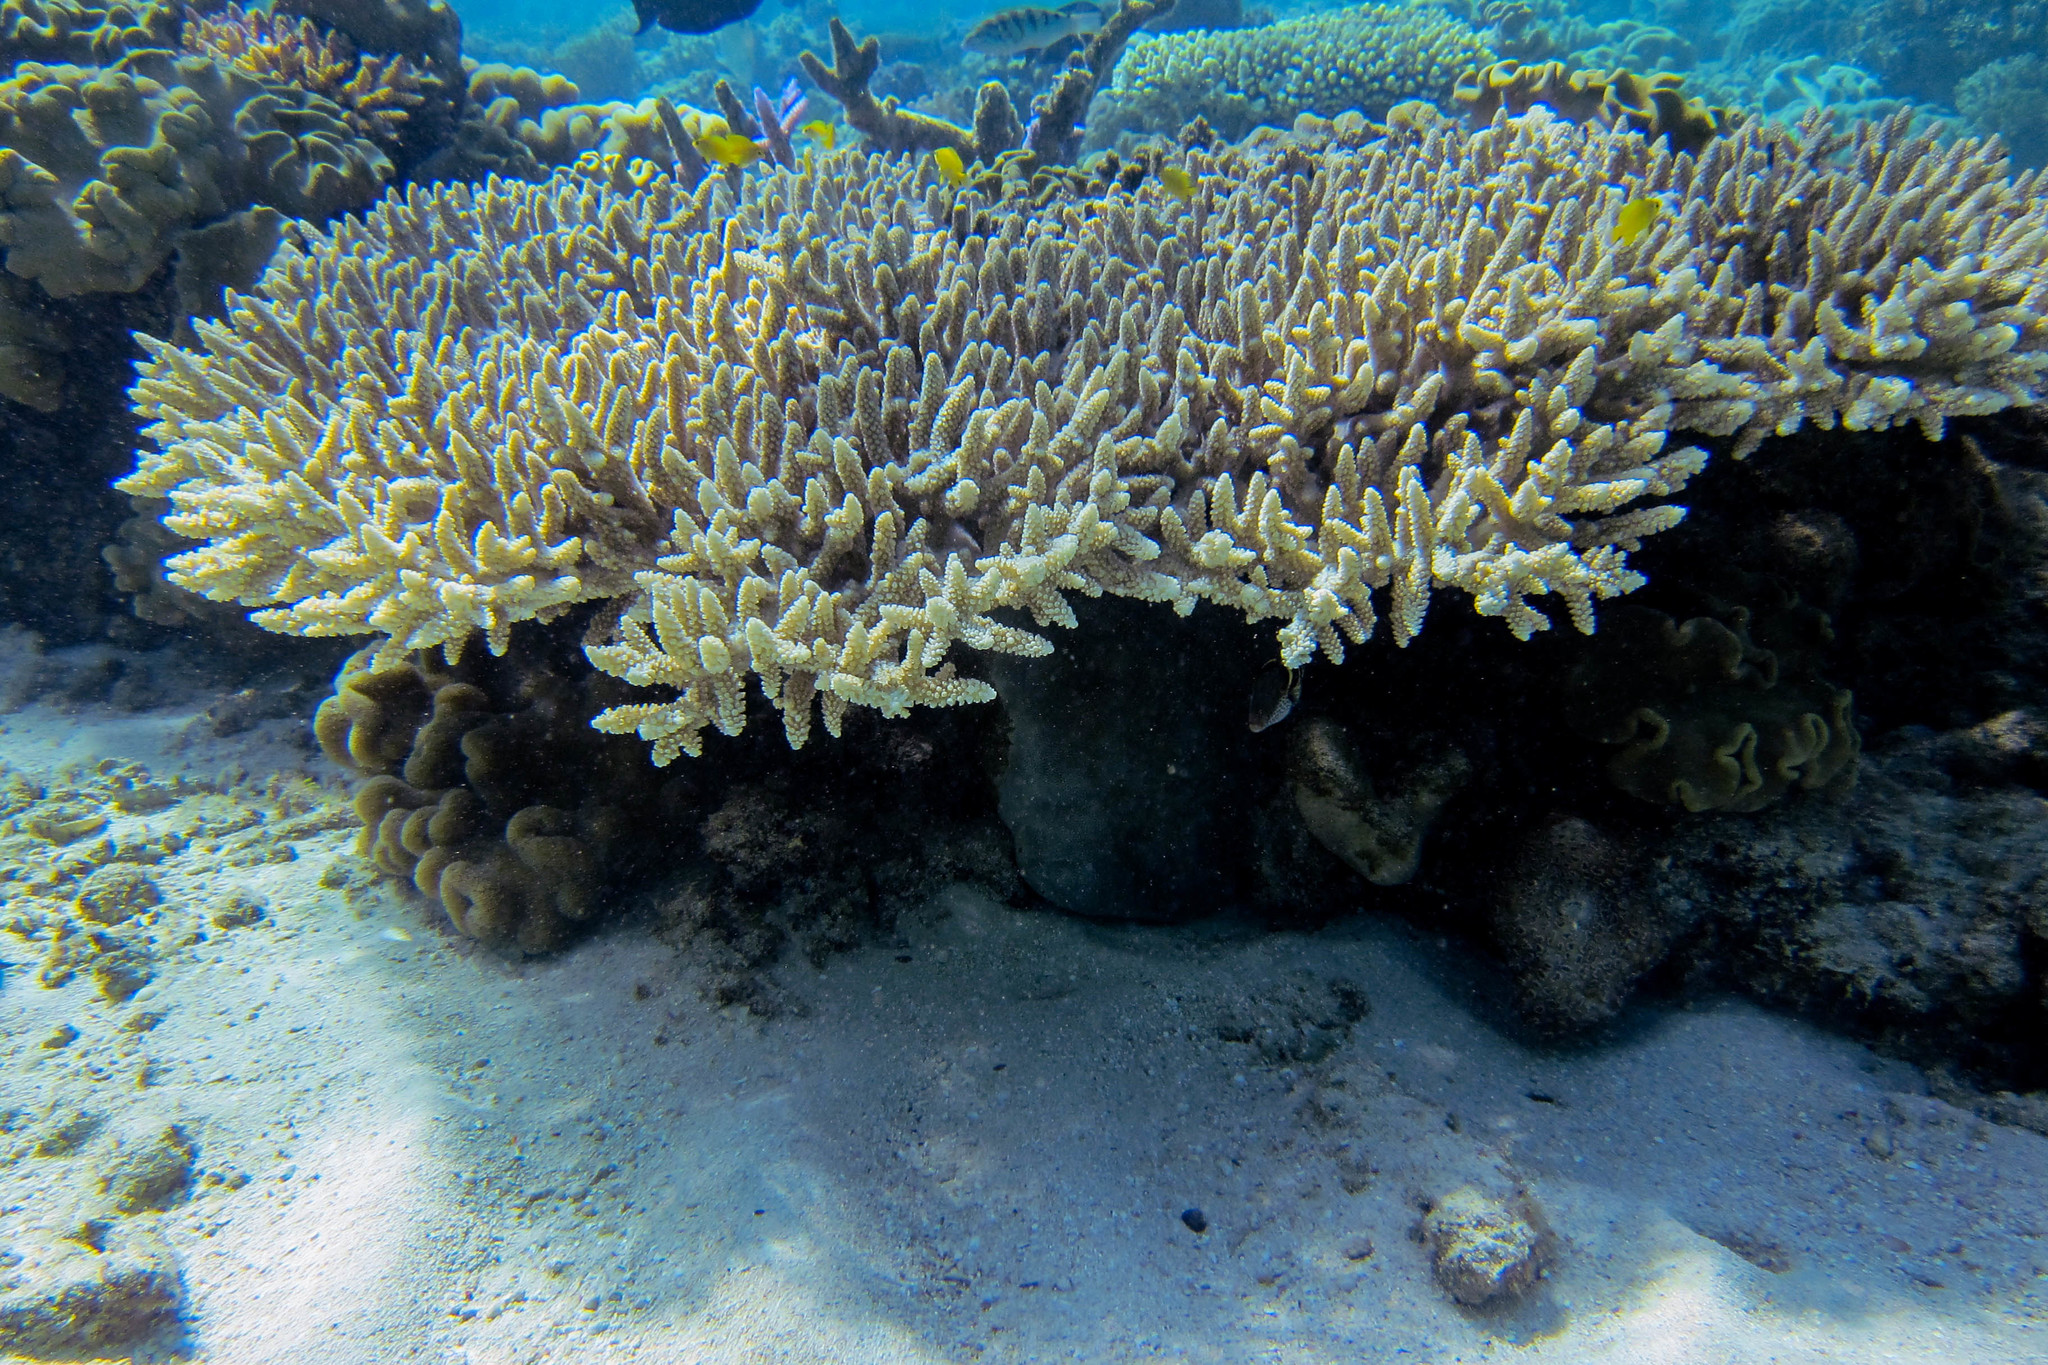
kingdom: Animalia
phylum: Chordata
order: Tetraodontiformes
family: Tetraodontidae
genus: Canthigaster
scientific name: Canthigaster valentini
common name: Banded toby
